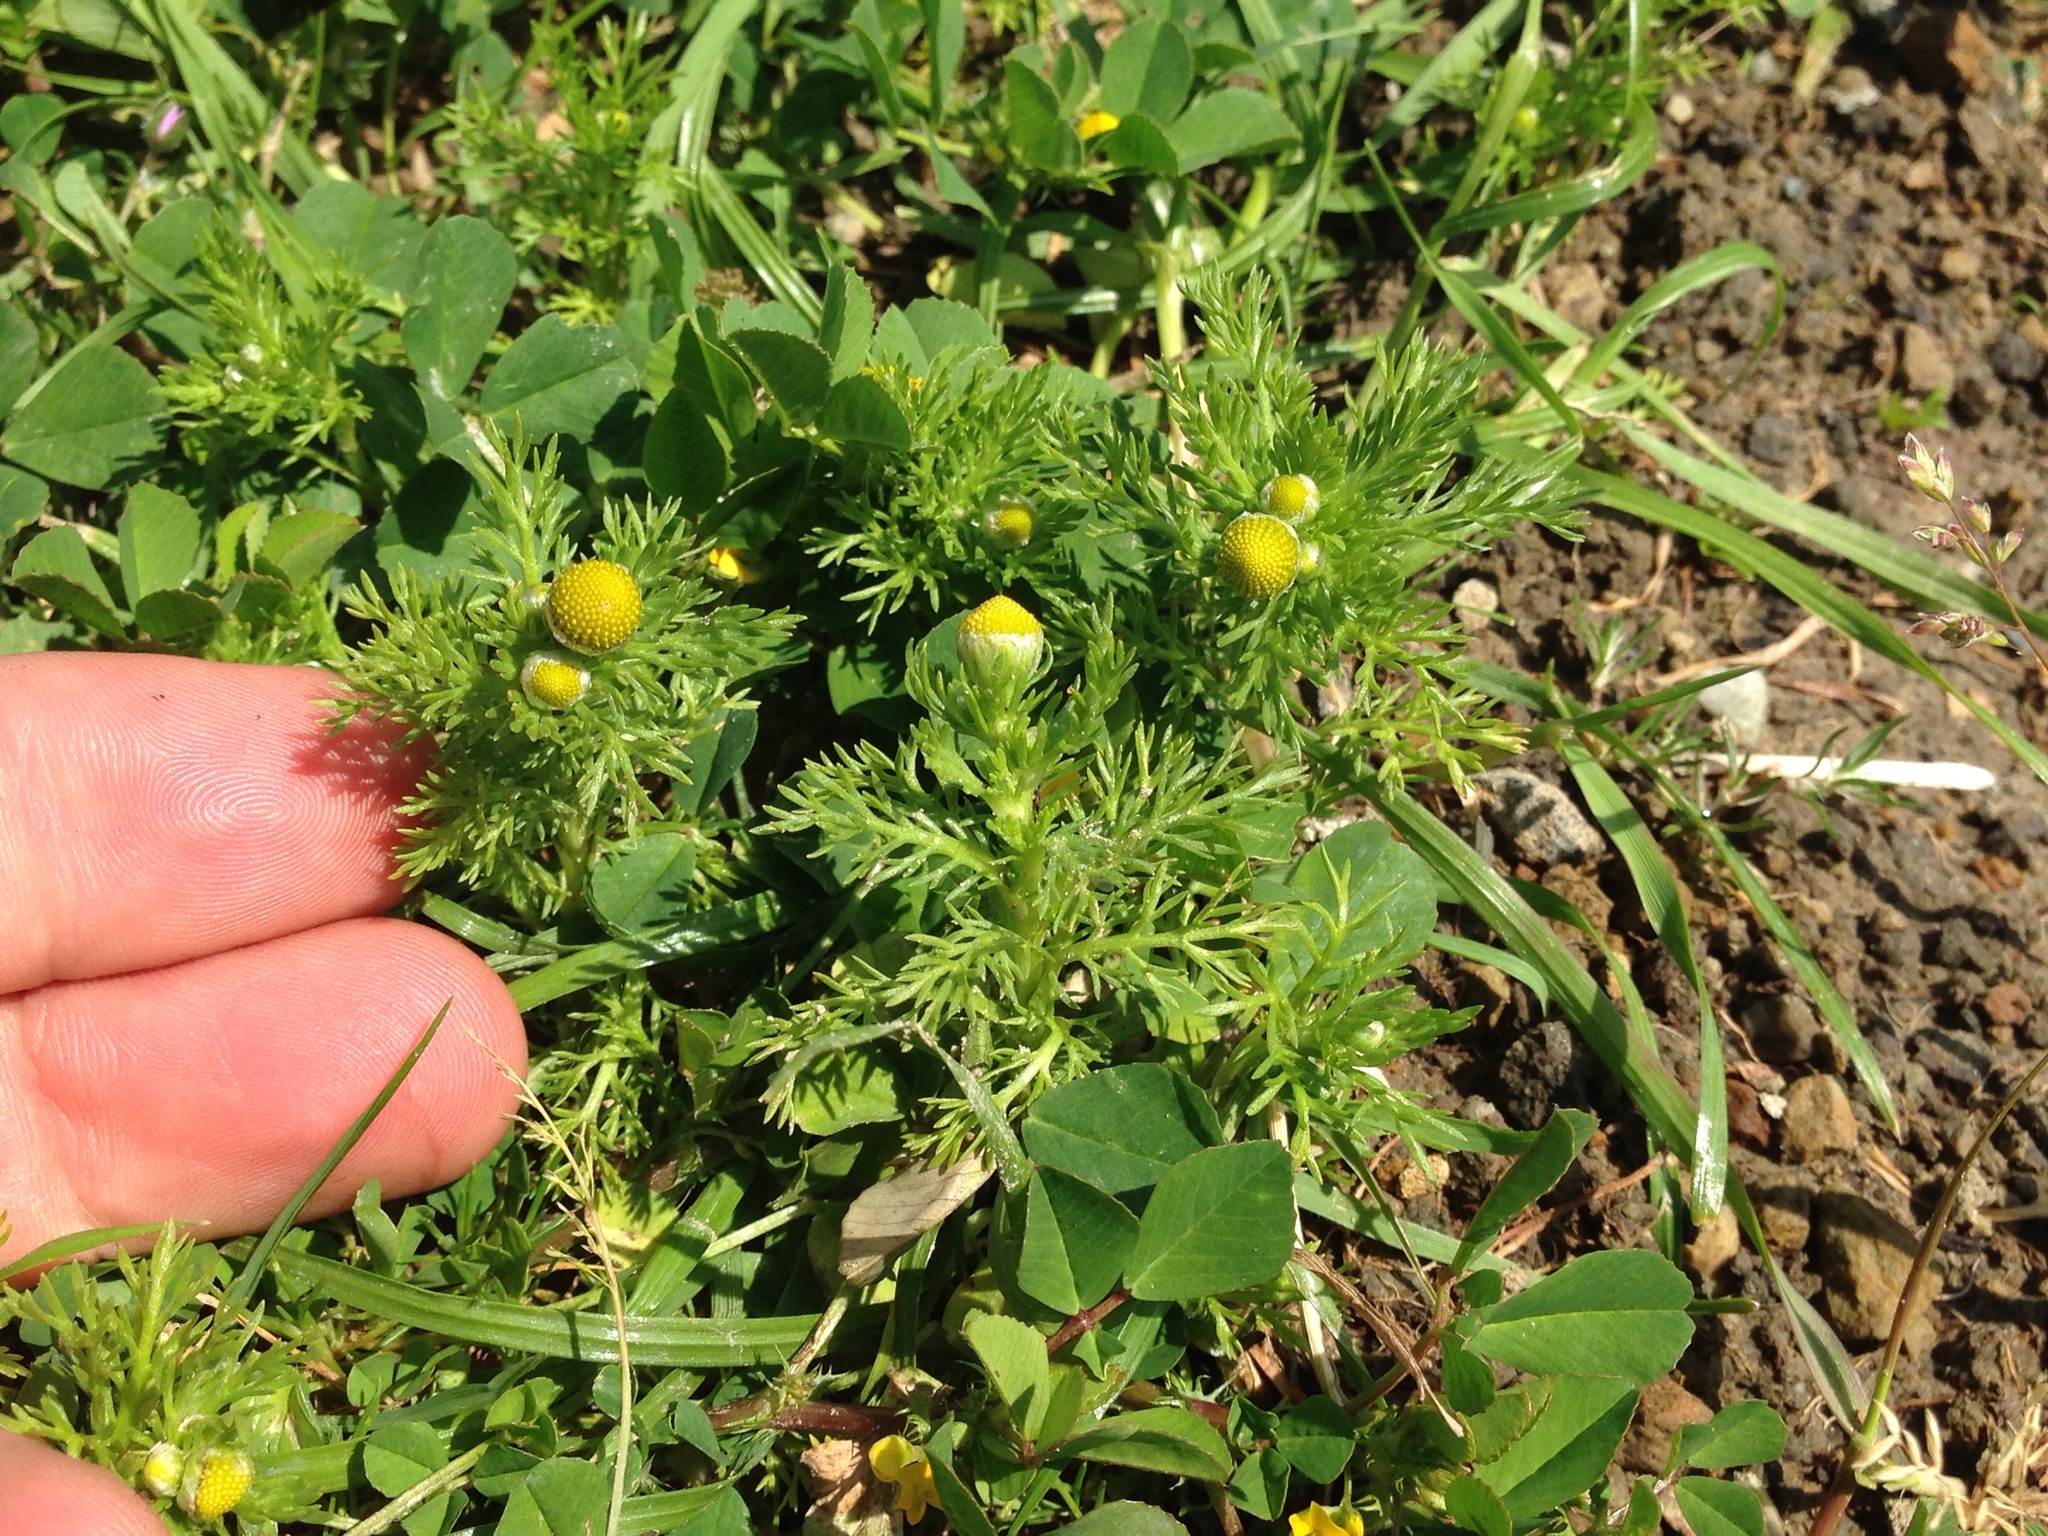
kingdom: Plantae
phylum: Tracheophyta
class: Magnoliopsida
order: Asterales
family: Asteraceae
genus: Matricaria
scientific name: Matricaria discoidea
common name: Disc mayweed
